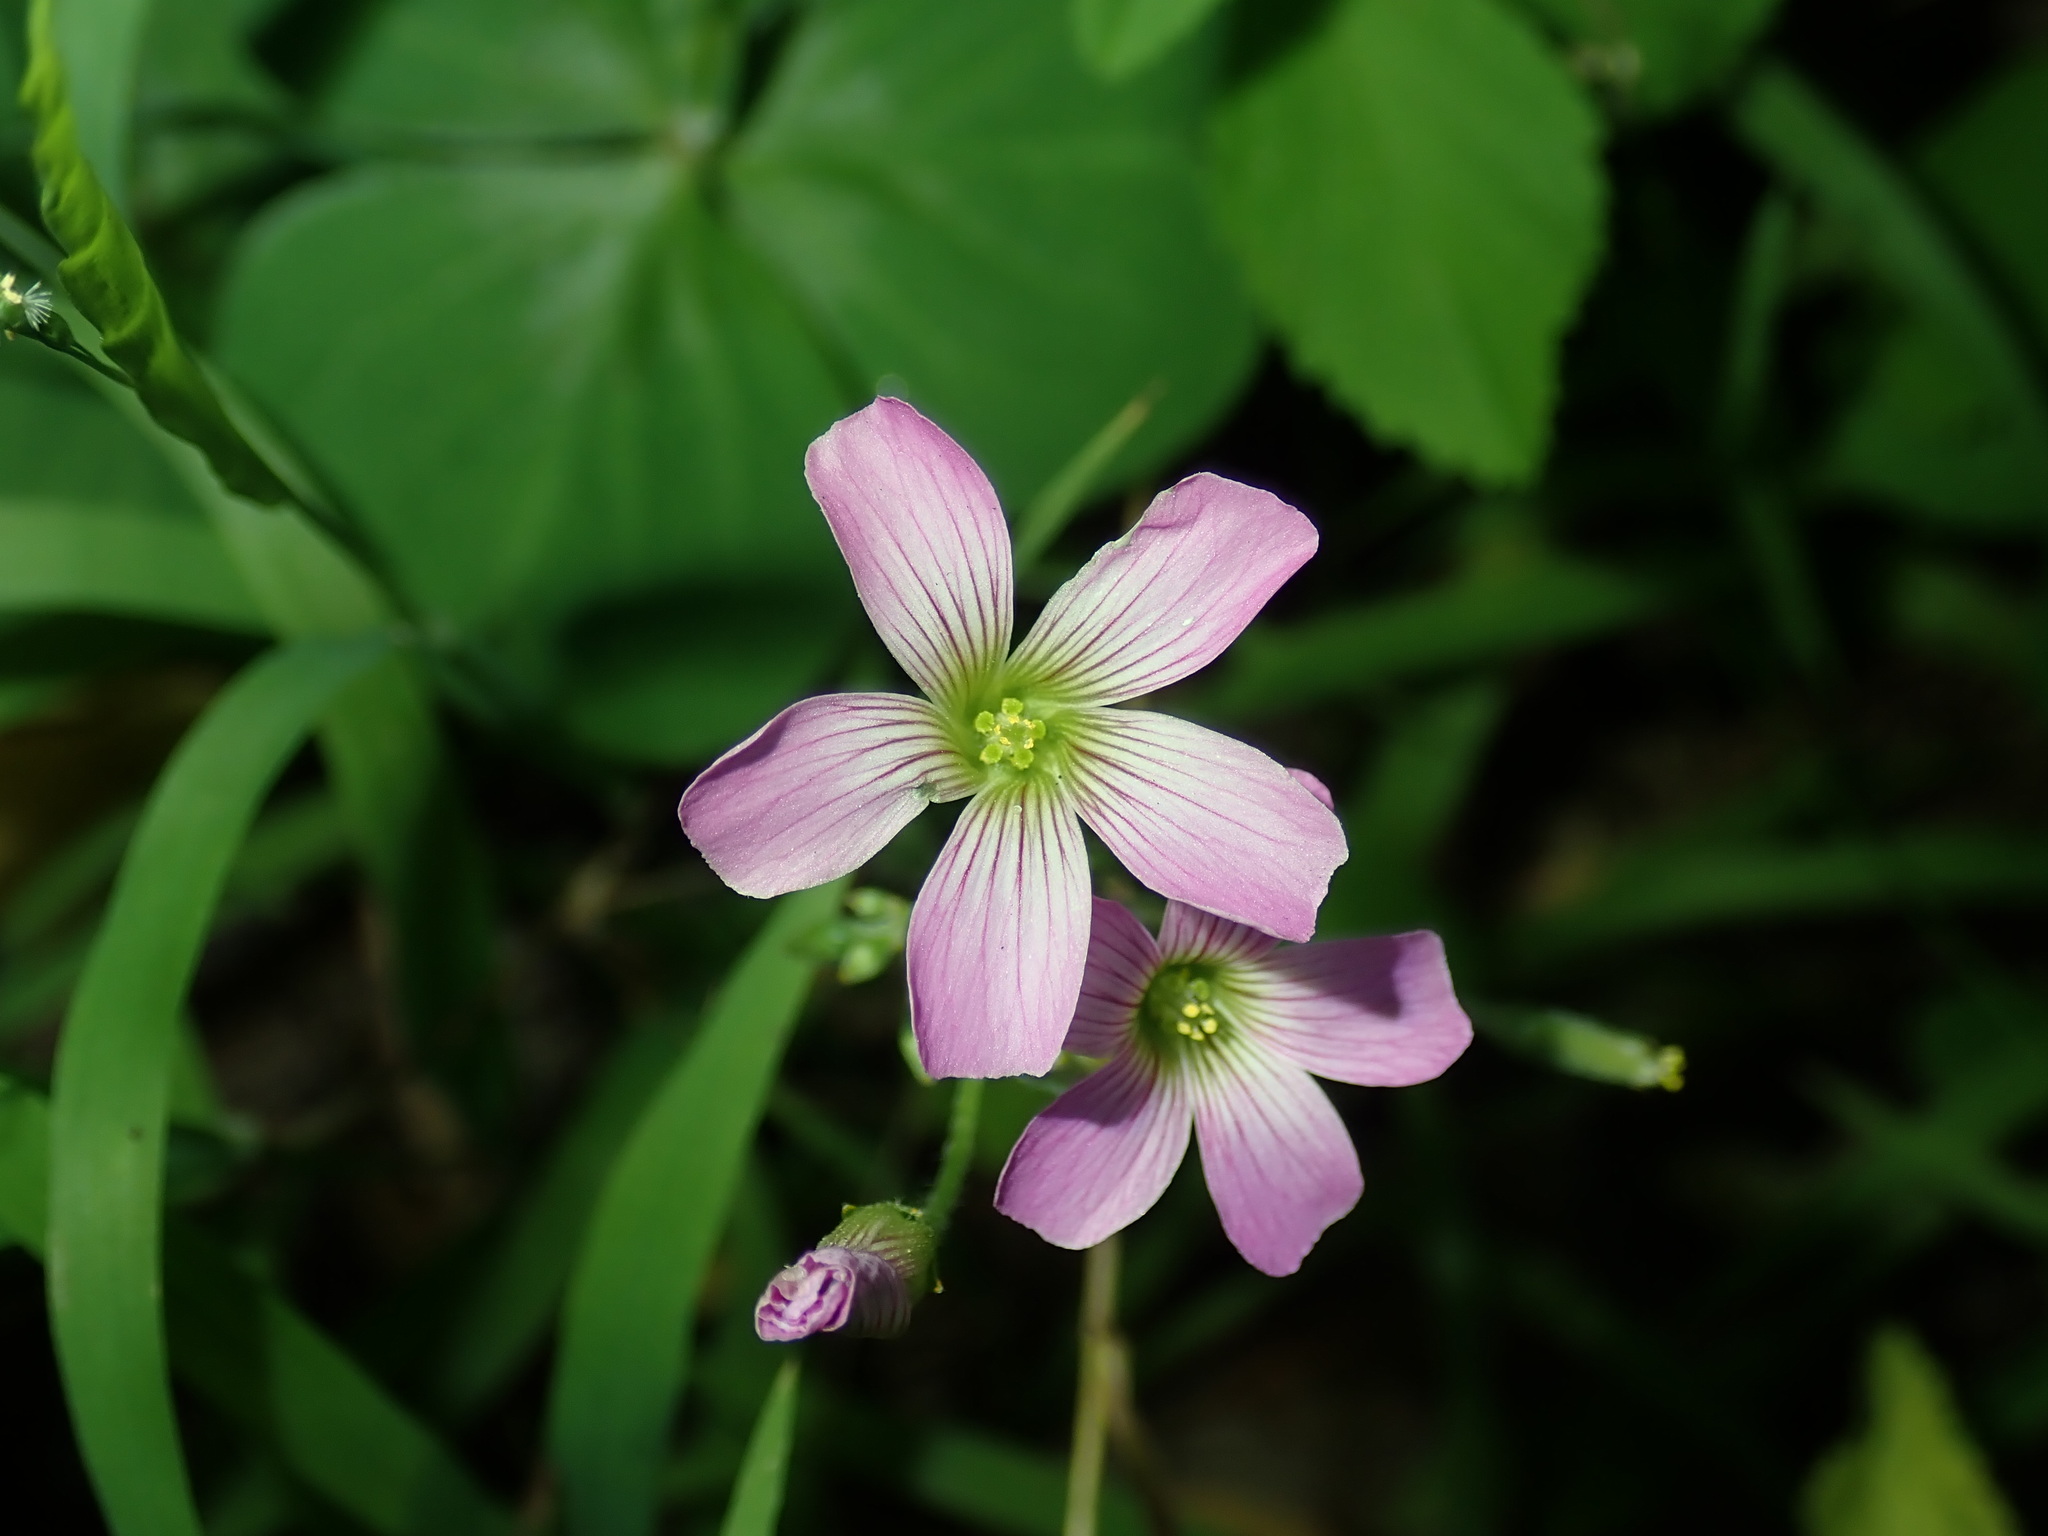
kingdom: Plantae
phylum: Tracheophyta
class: Magnoliopsida
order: Oxalidales
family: Oxalidaceae
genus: Oxalis
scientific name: Oxalis debilis
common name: Large-flowered pink-sorrel
